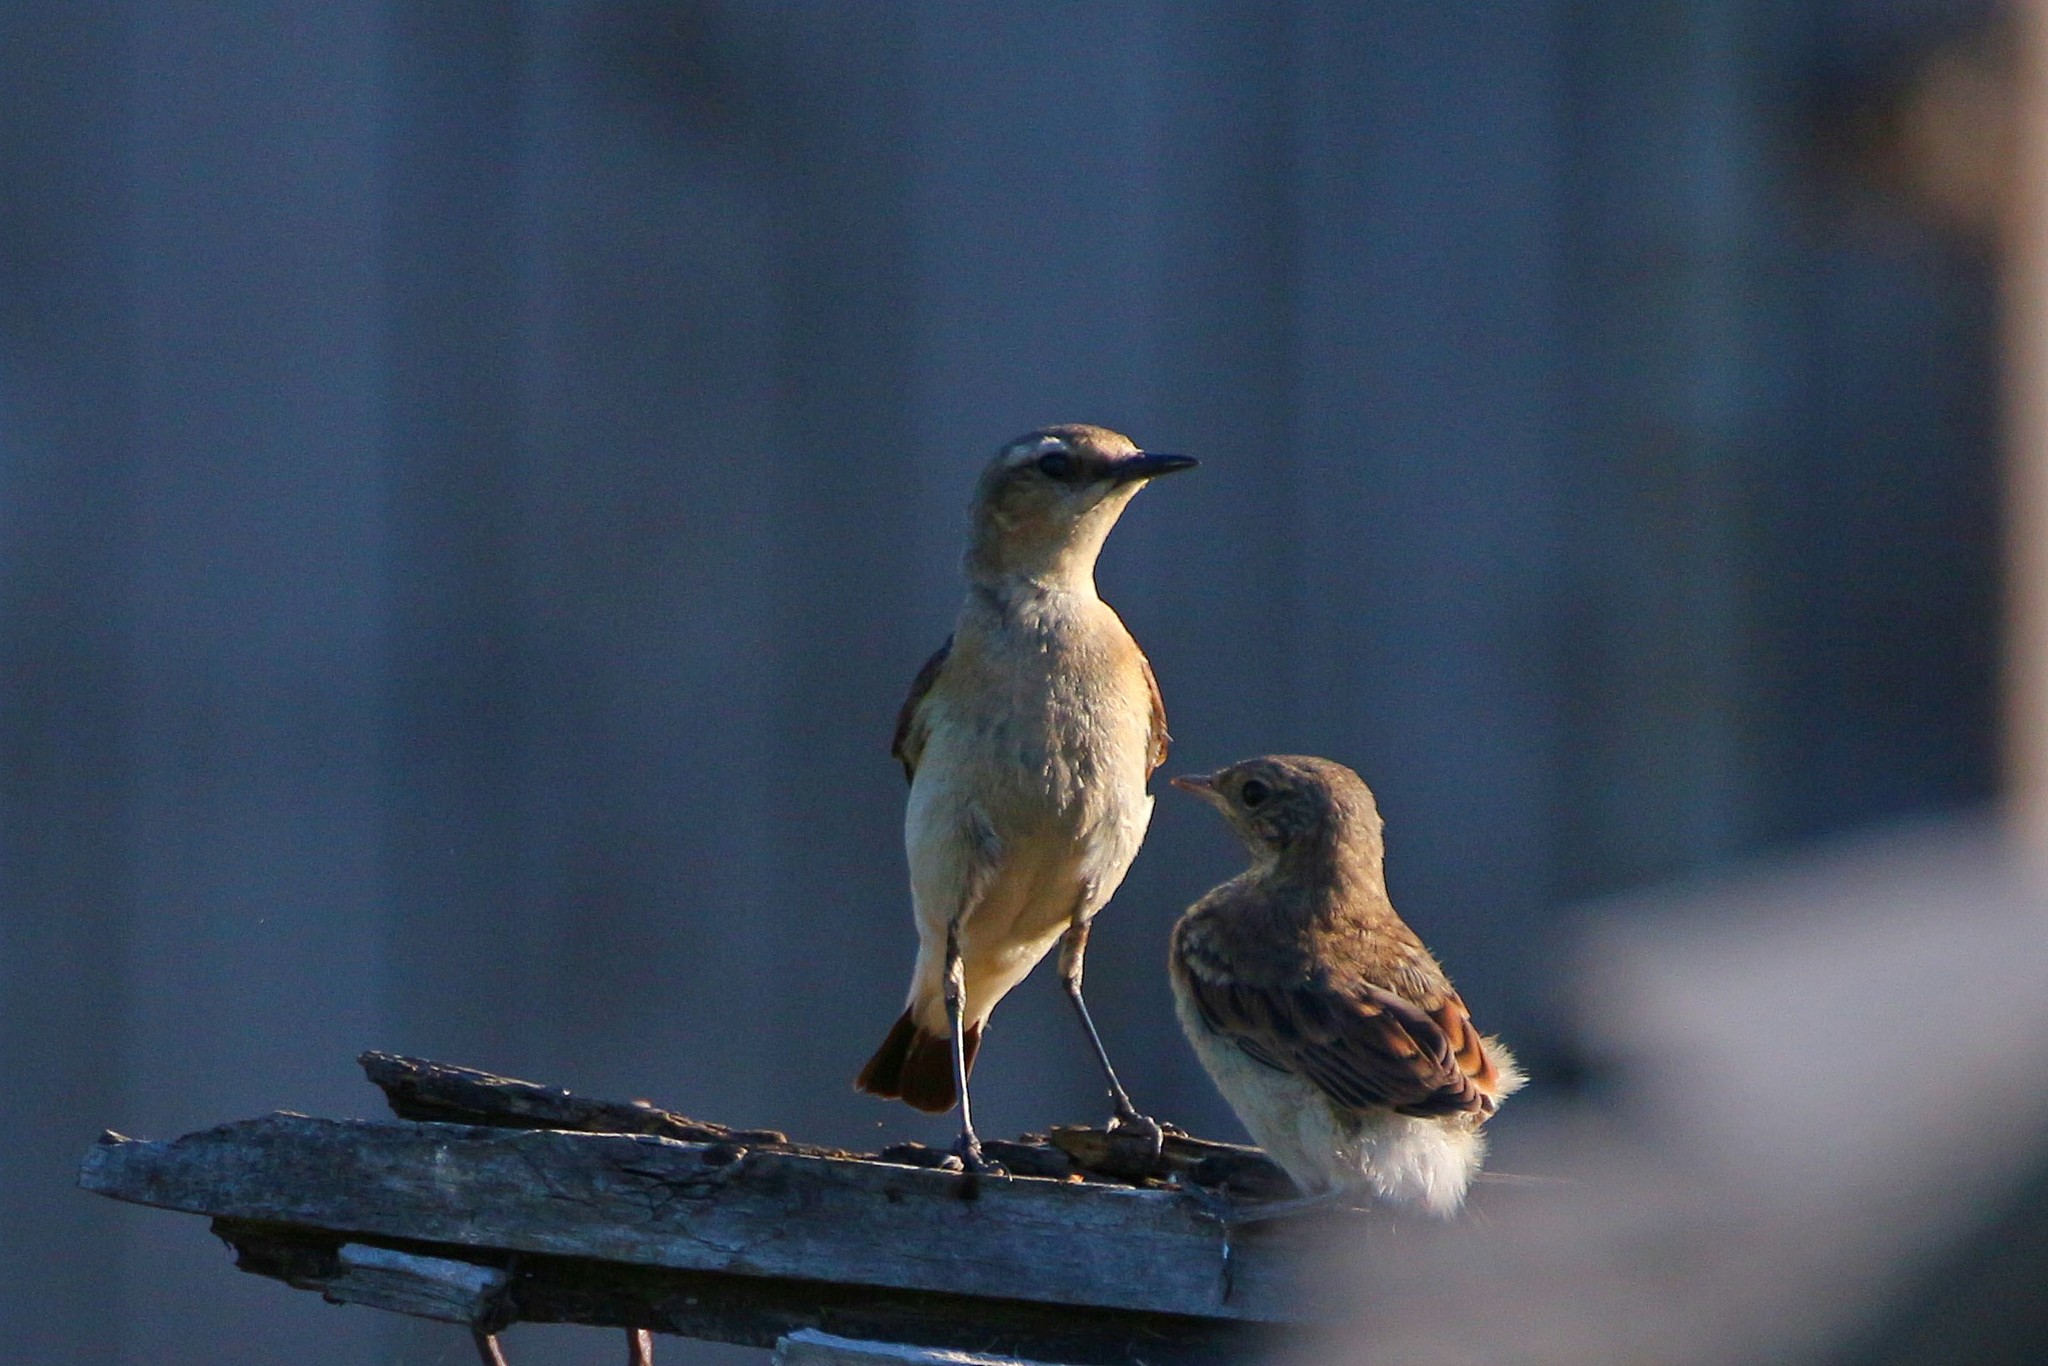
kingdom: Animalia
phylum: Chordata
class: Aves
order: Passeriformes
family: Muscicapidae
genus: Oenanthe
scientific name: Oenanthe oenanthe
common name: Northern wheatear
